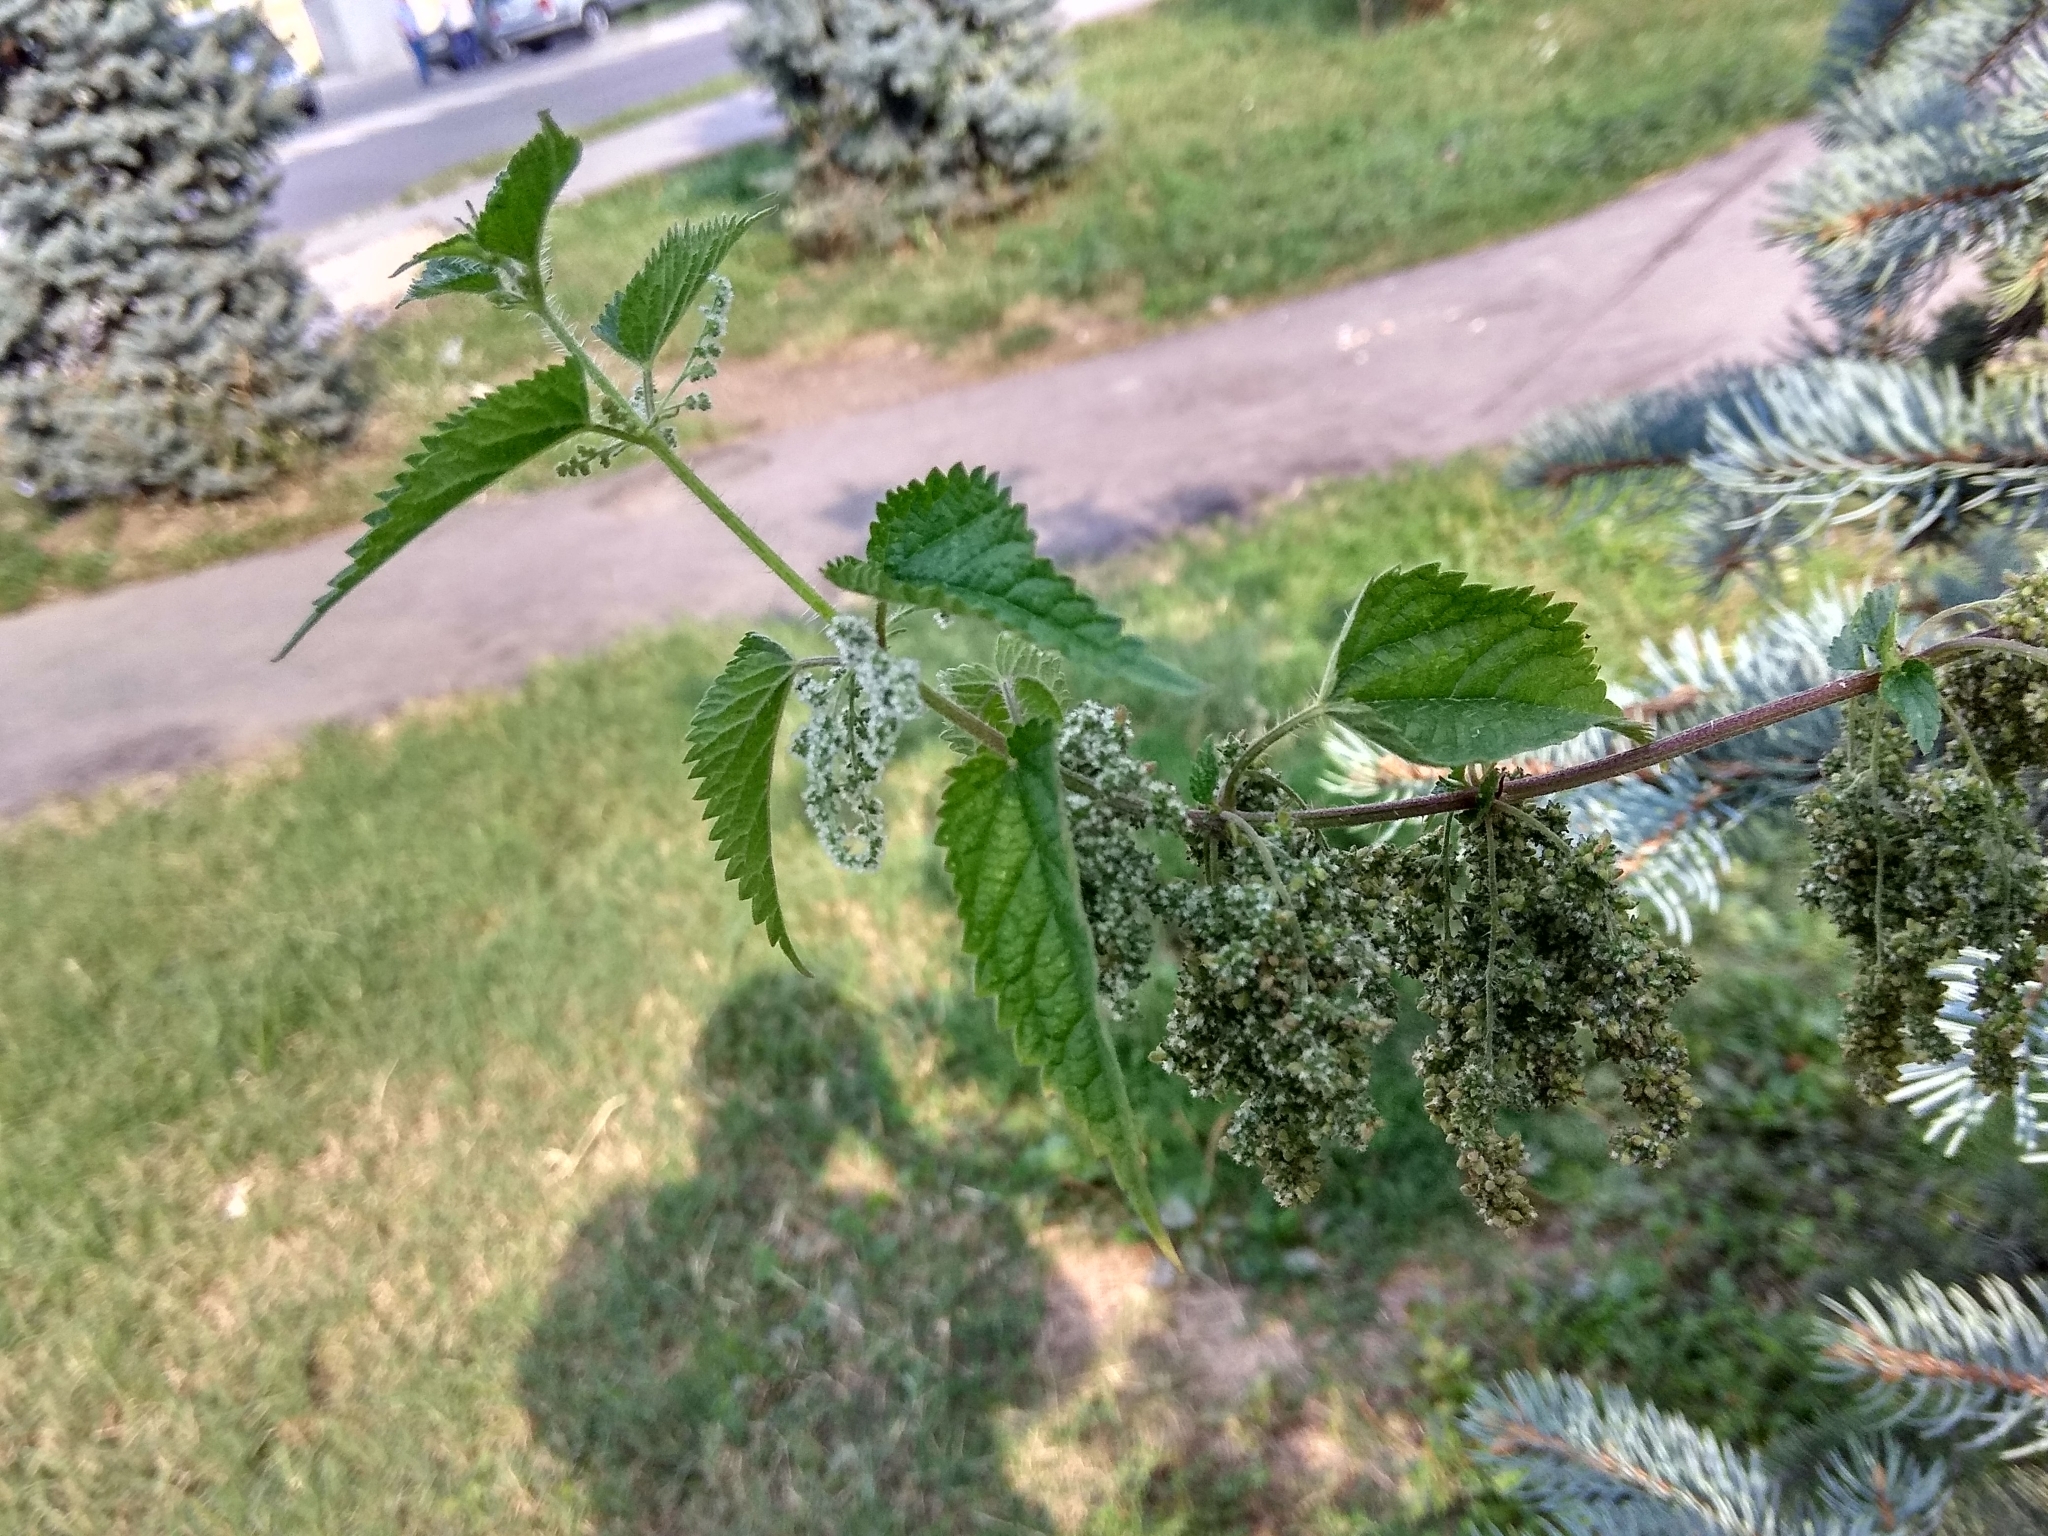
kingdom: Plantae
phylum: Tracheophyta
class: Magnoliopsida
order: Rosales
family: Urticaceae
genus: Urtica
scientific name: Urtica dioica
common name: Common nettle
